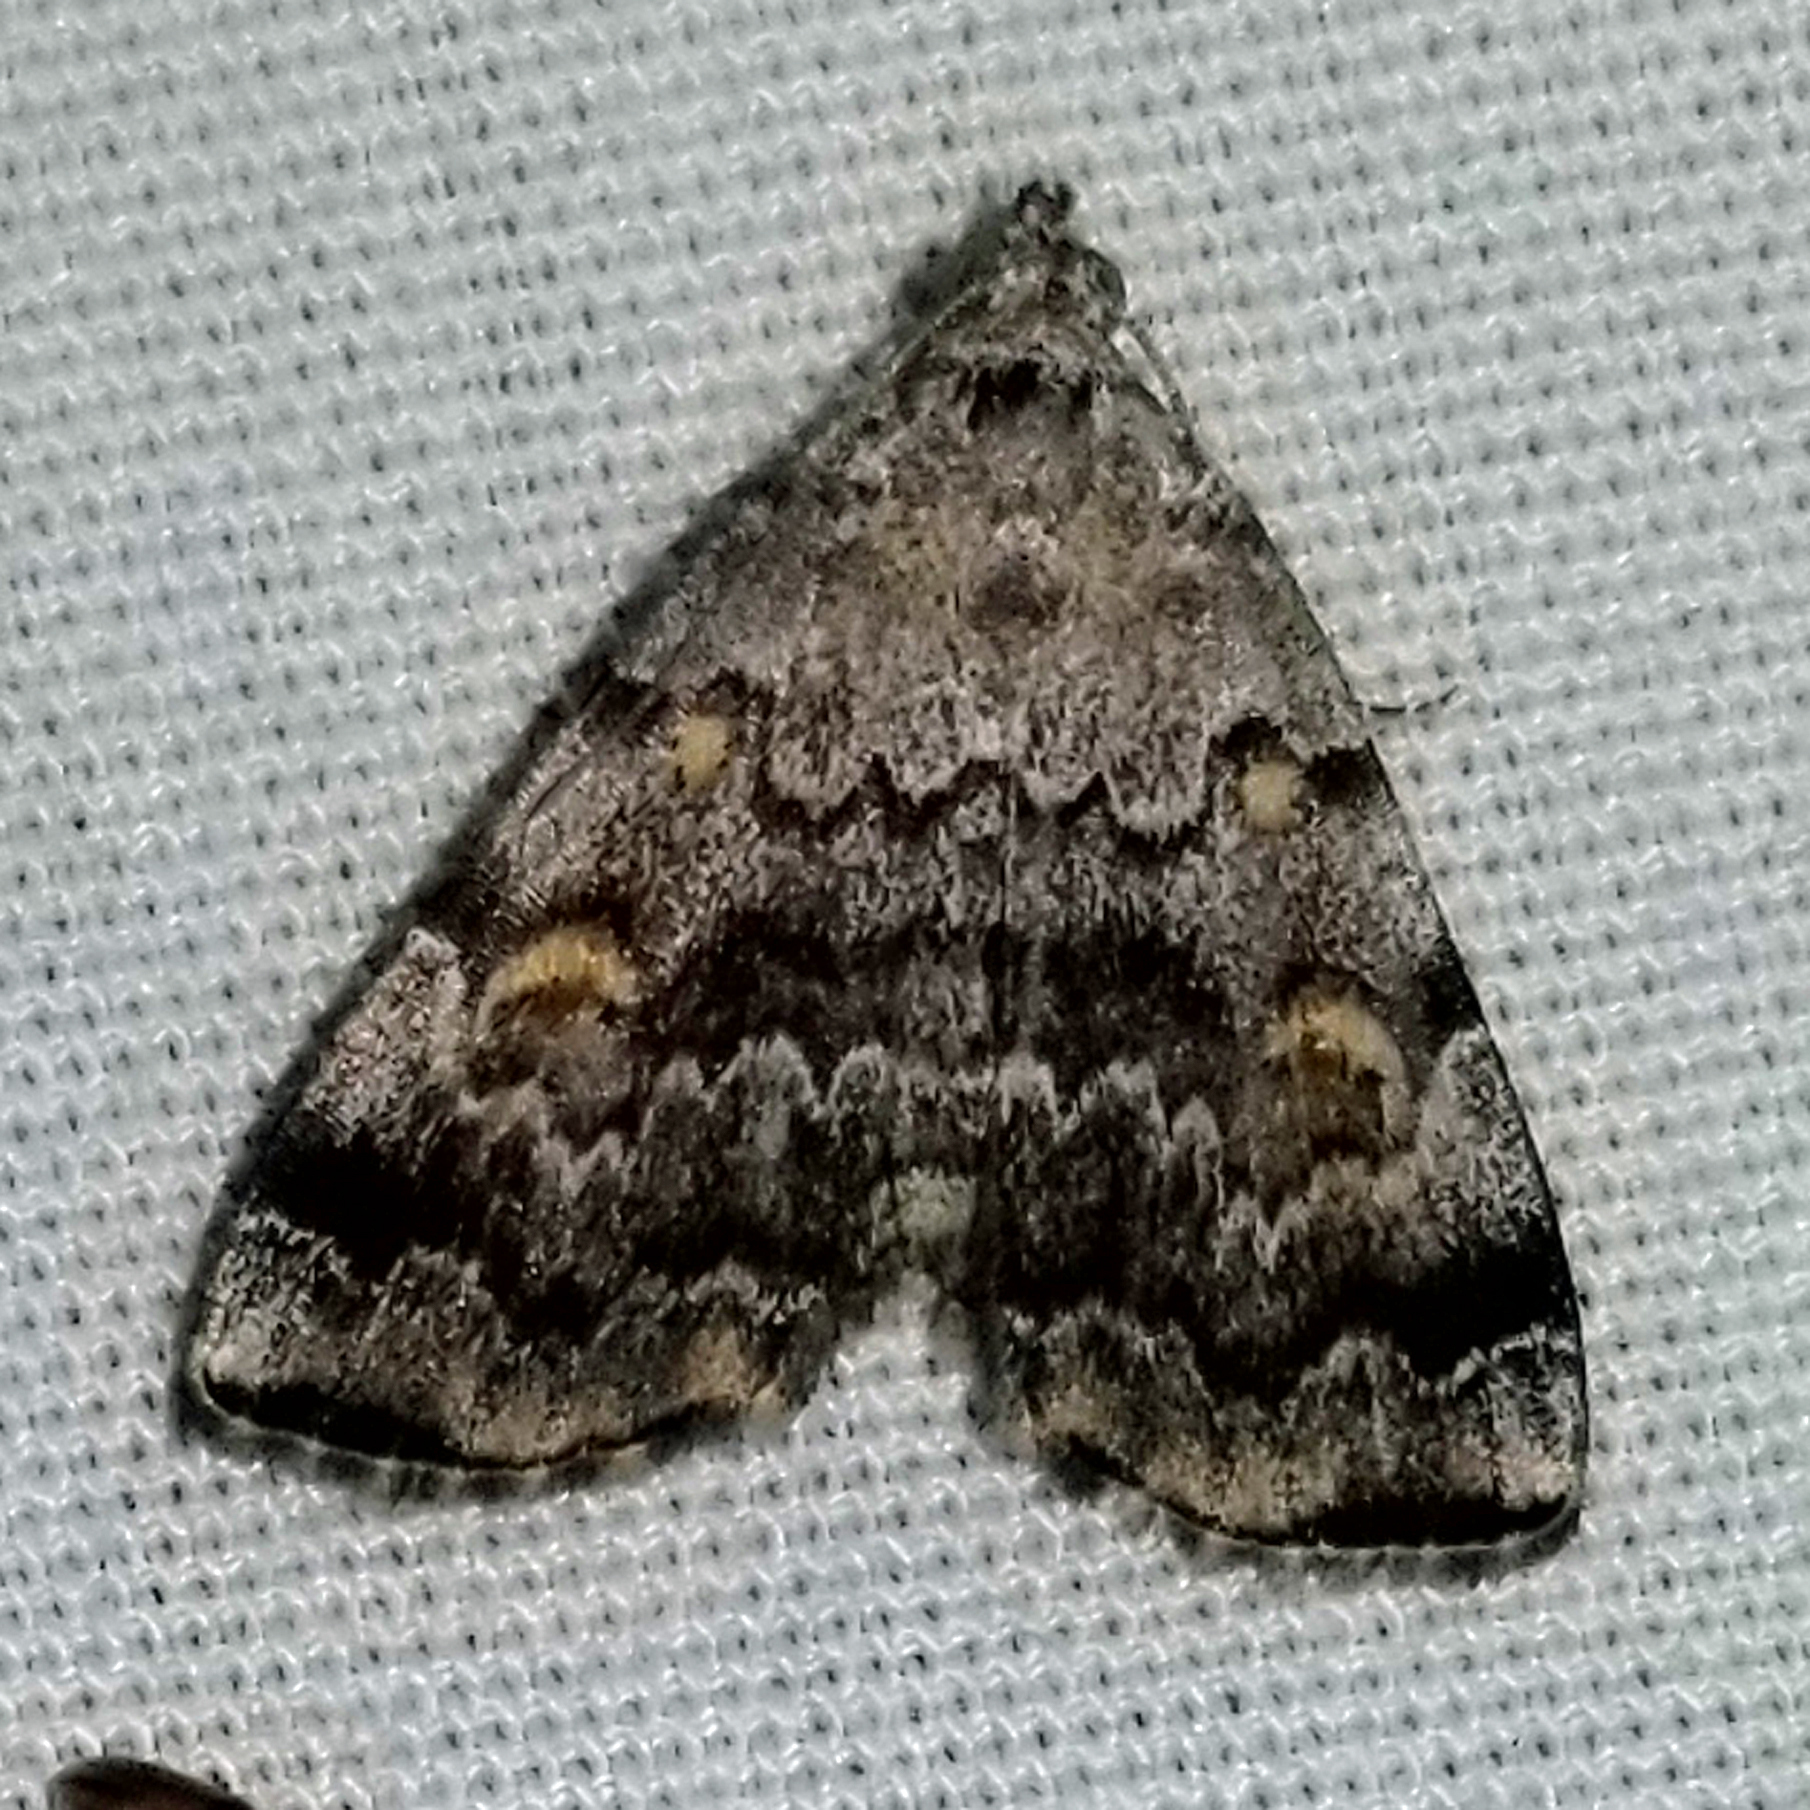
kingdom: Animalia
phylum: Arthropoda
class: Insecta
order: Lepidoptera
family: Erebidae
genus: Idia
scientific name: Idia americalis
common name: American idia moth
